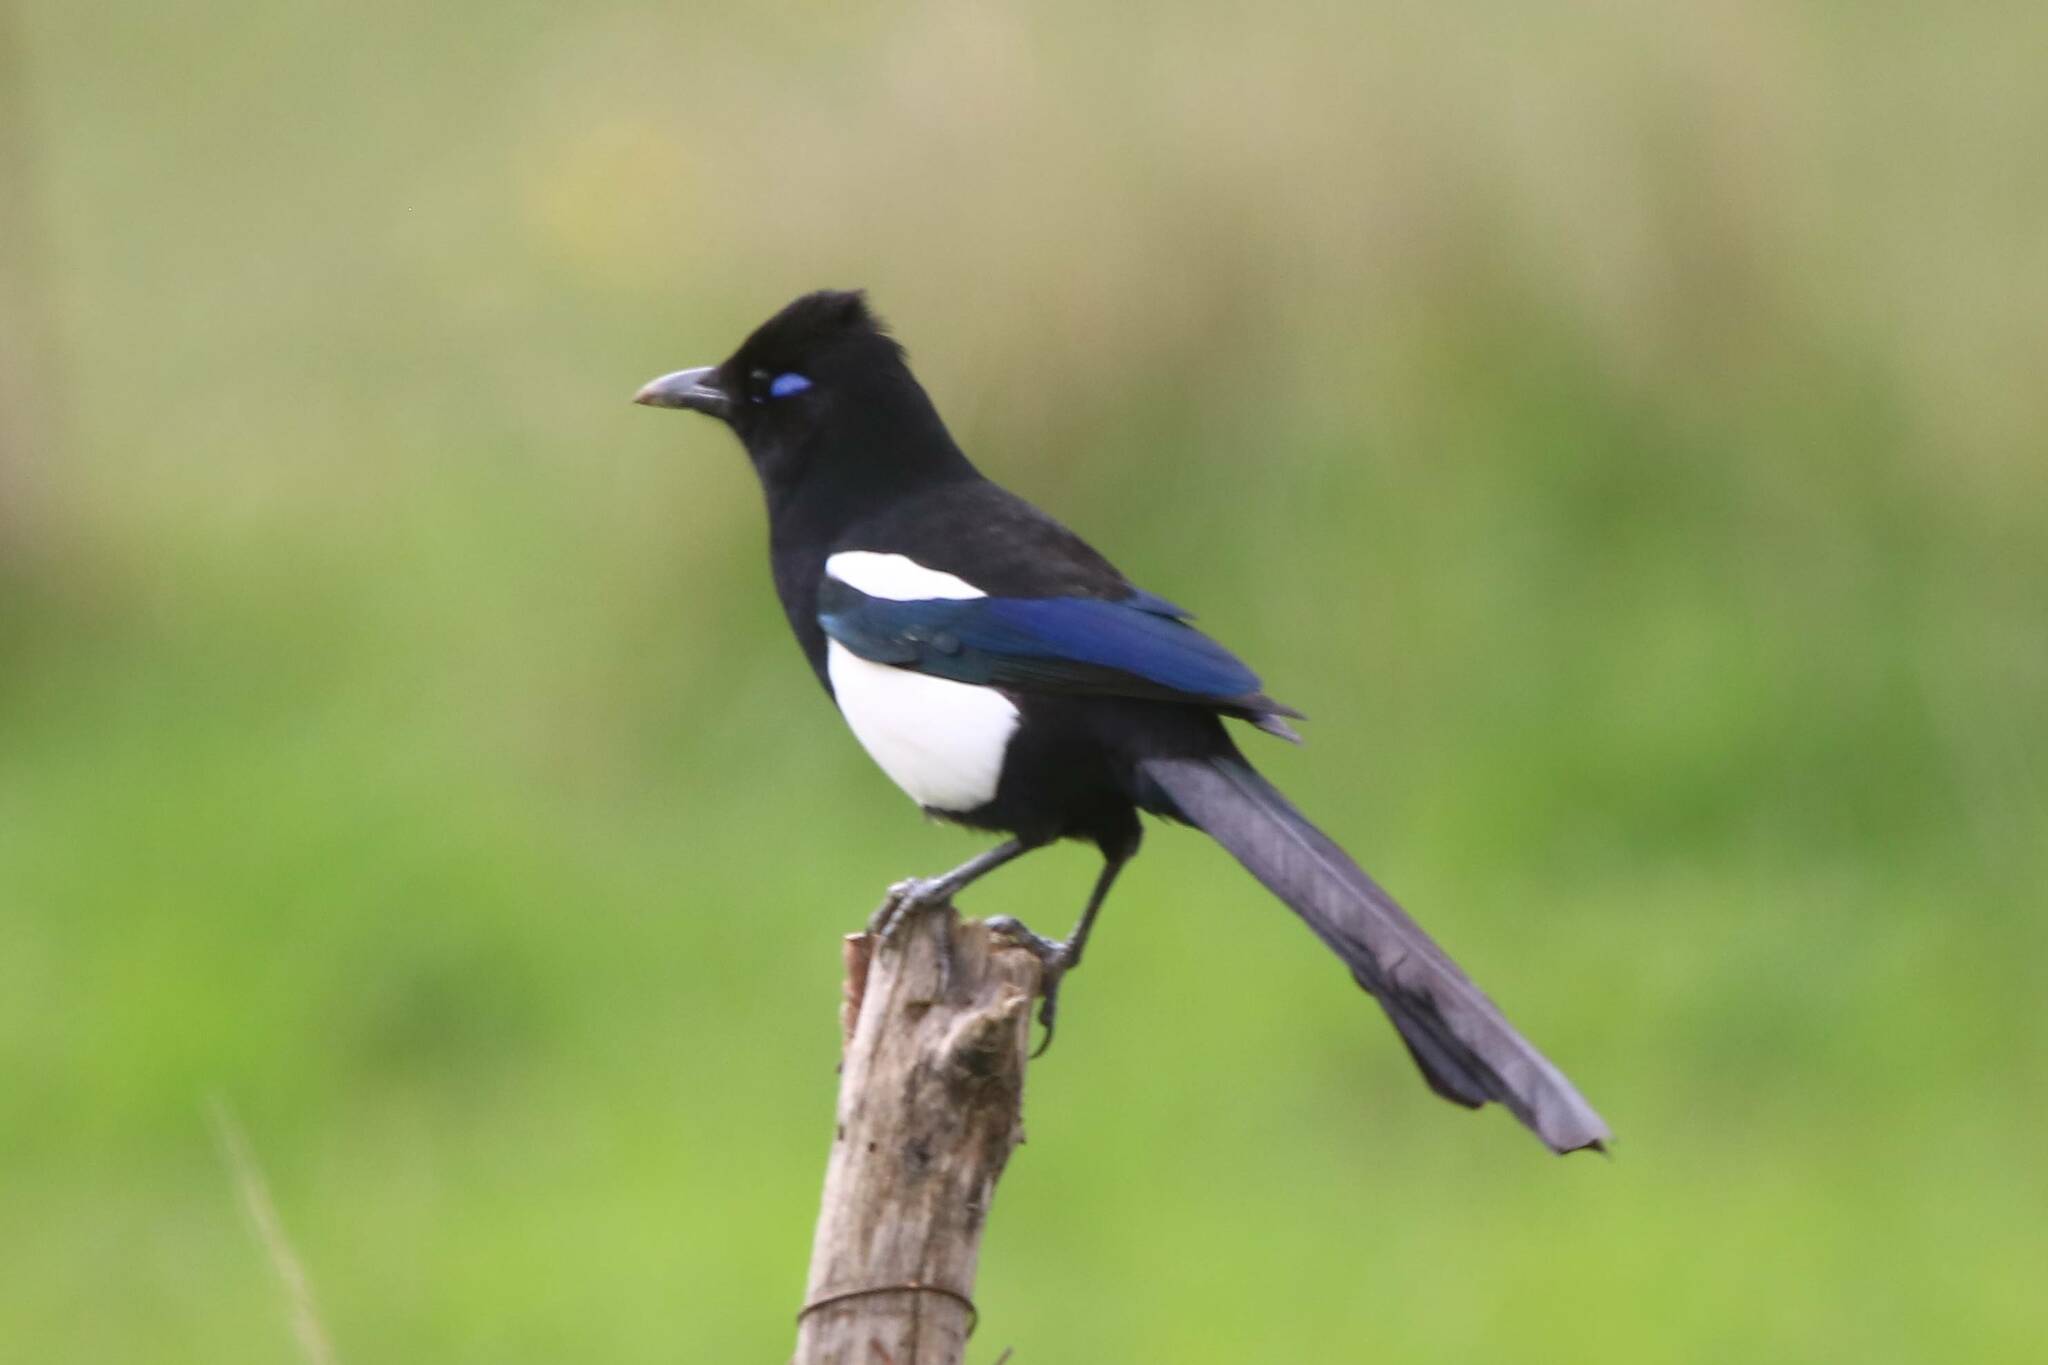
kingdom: Animalia
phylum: Chordata
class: Aves
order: Passeriformes
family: Corvidae
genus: Pica
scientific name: Pica mauritanica
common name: Maghreb magpie
